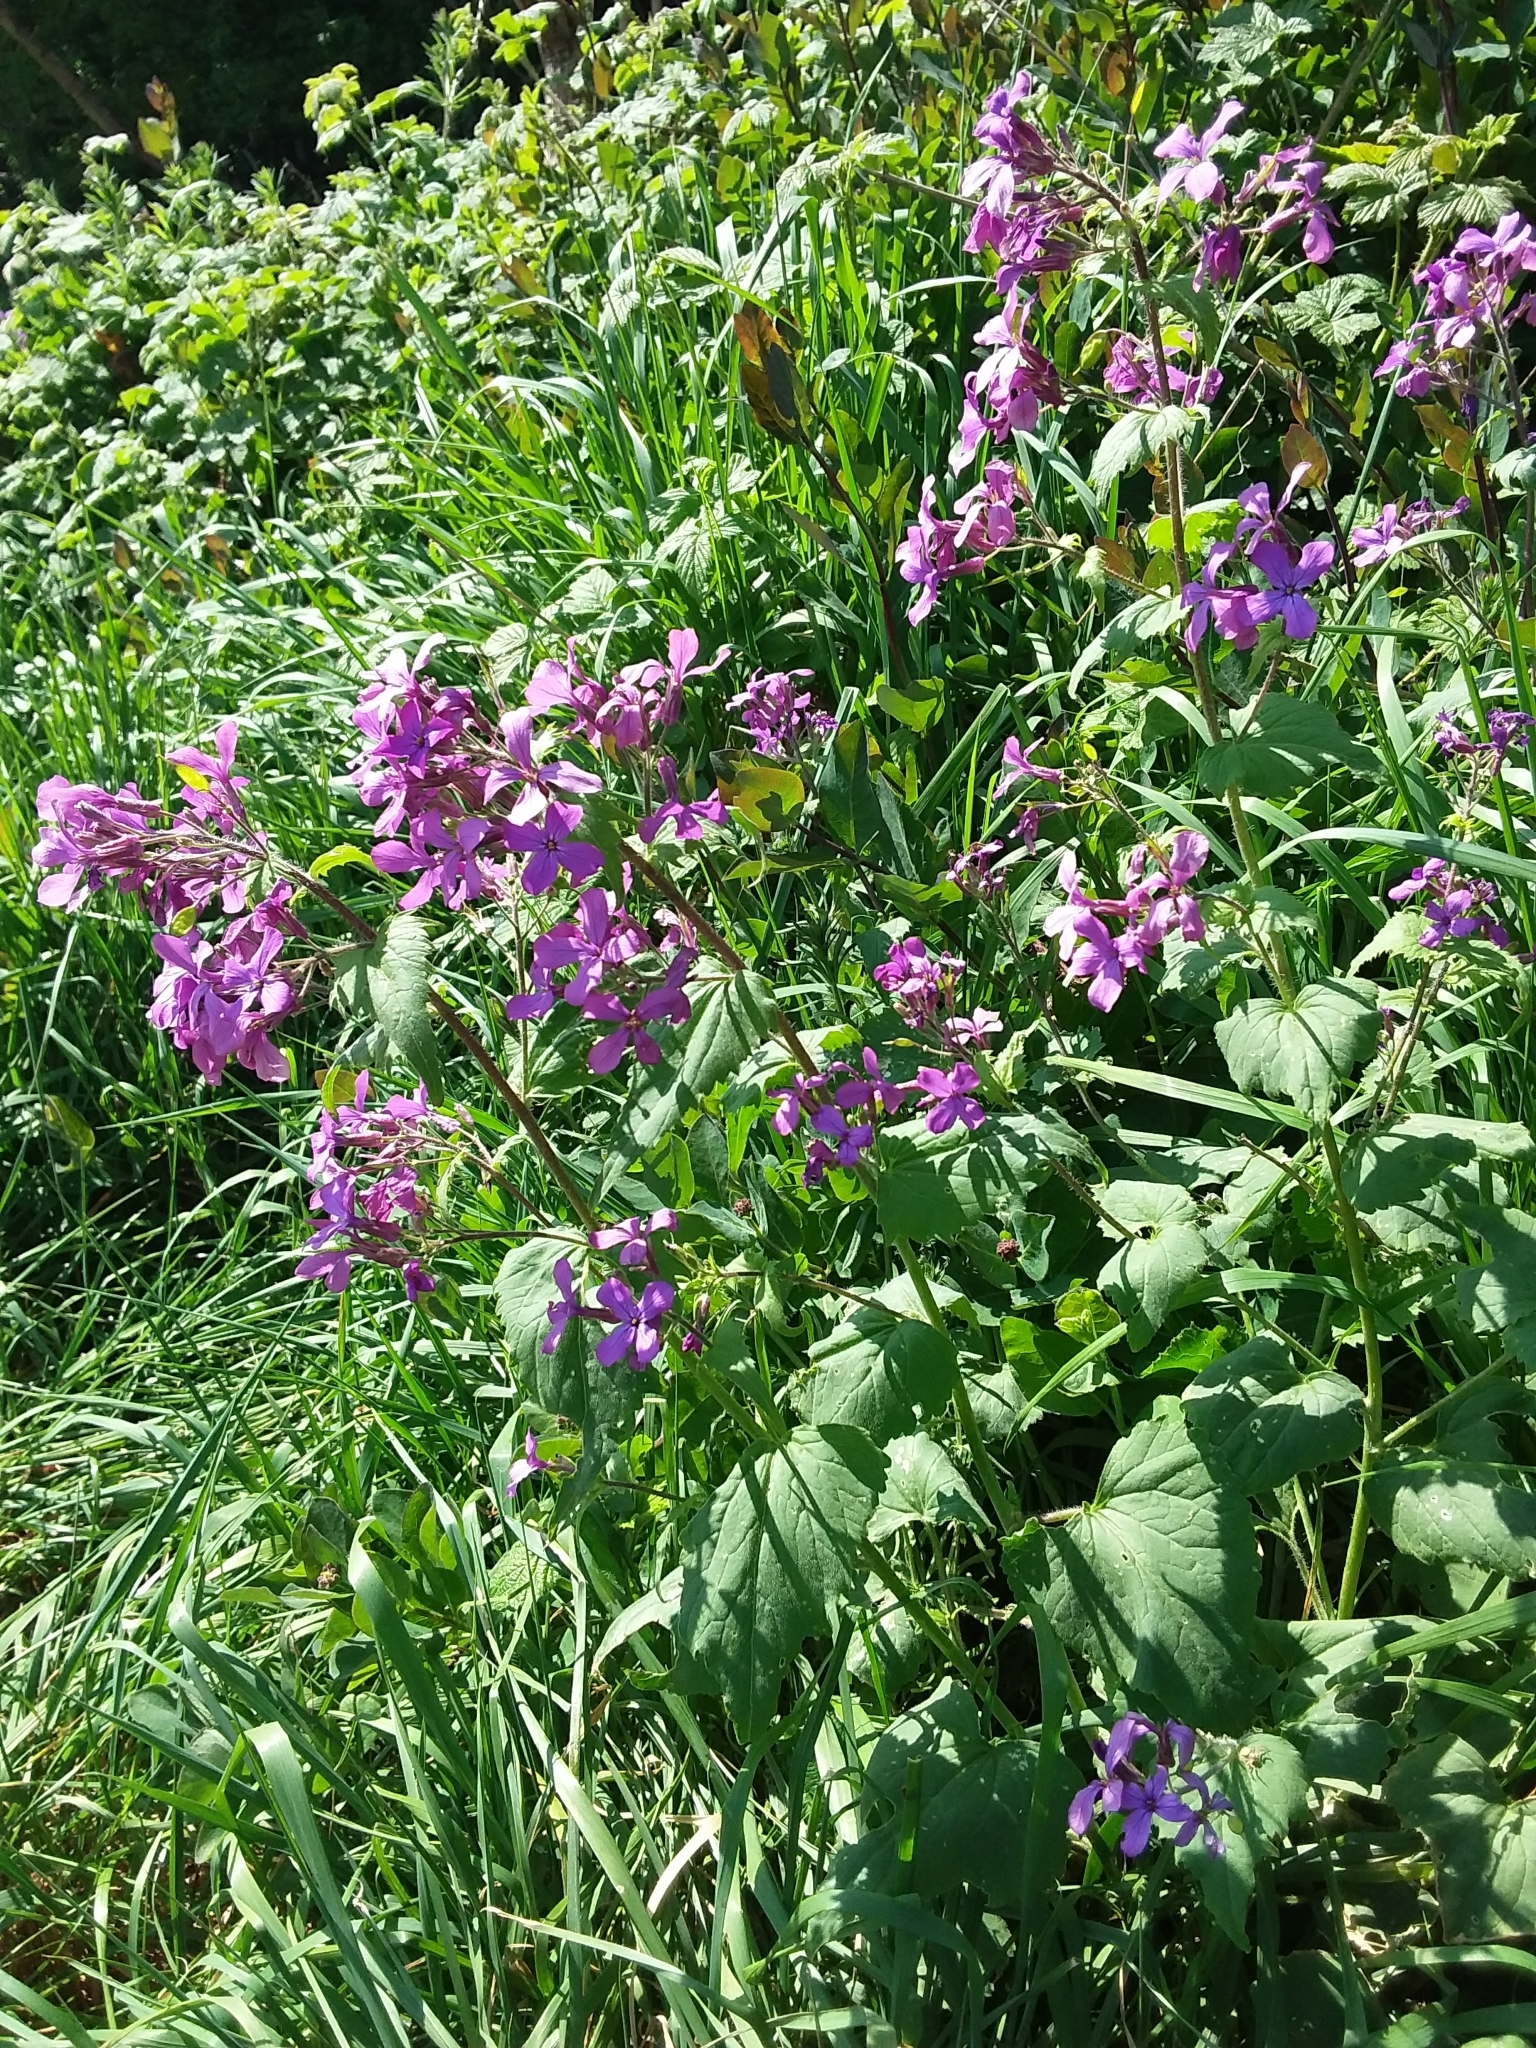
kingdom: Plantae
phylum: Tracheophyta
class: Magnoliopsida
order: Brassicales
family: Brassicaceae
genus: Lunaria
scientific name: Lunaria annua
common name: Honesty
